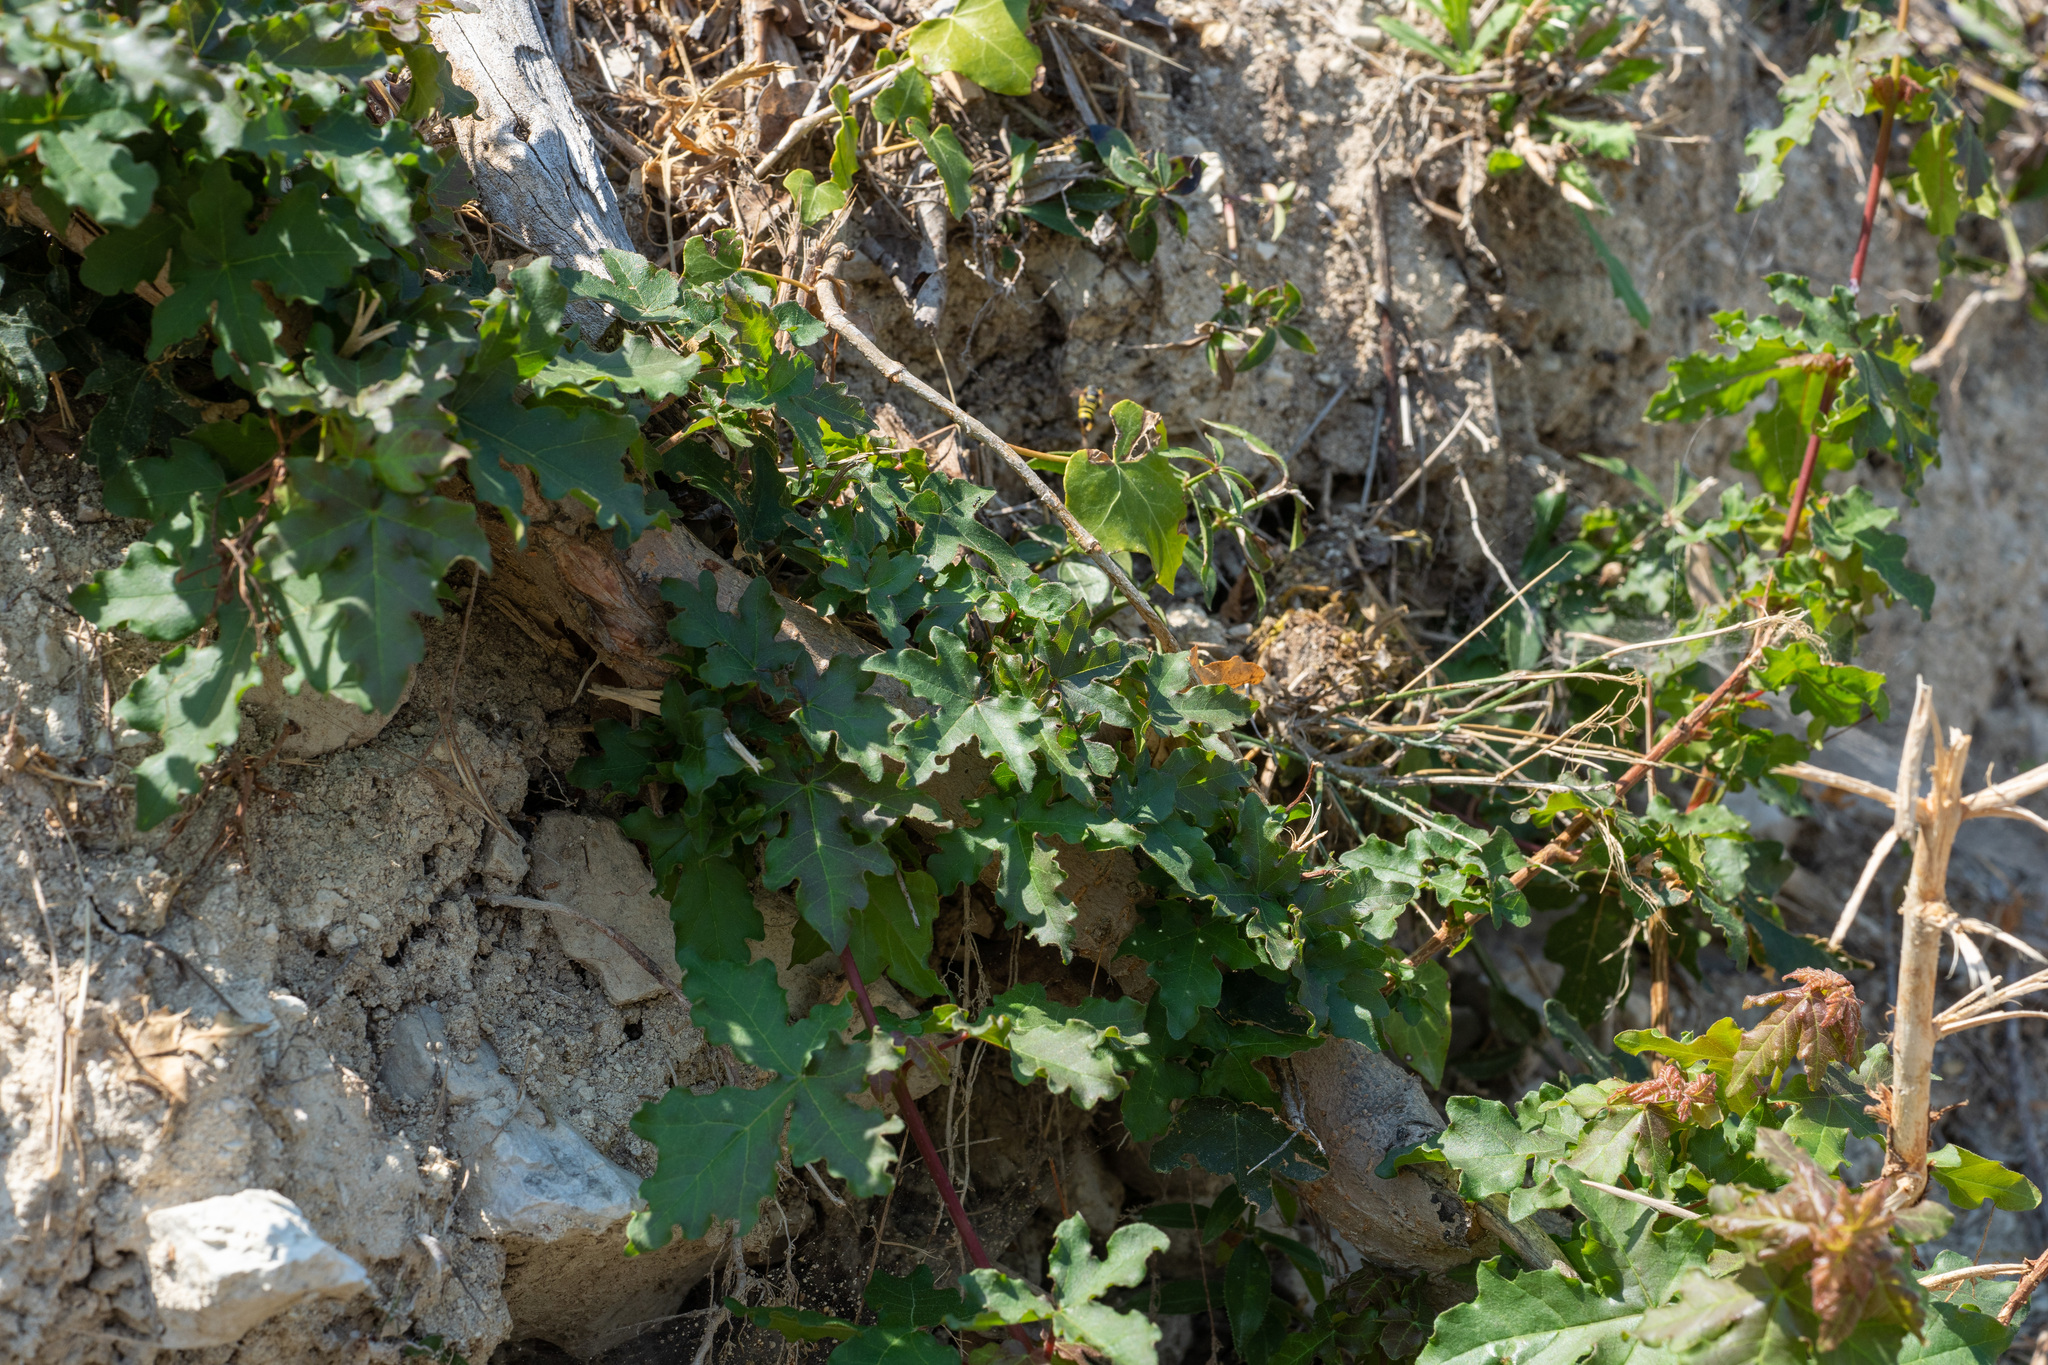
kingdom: Plantae
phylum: Tracheophyta
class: Magnoliopsida
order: Rosales
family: Moraceae
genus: Ficus
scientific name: Ficus carica
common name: Fig
